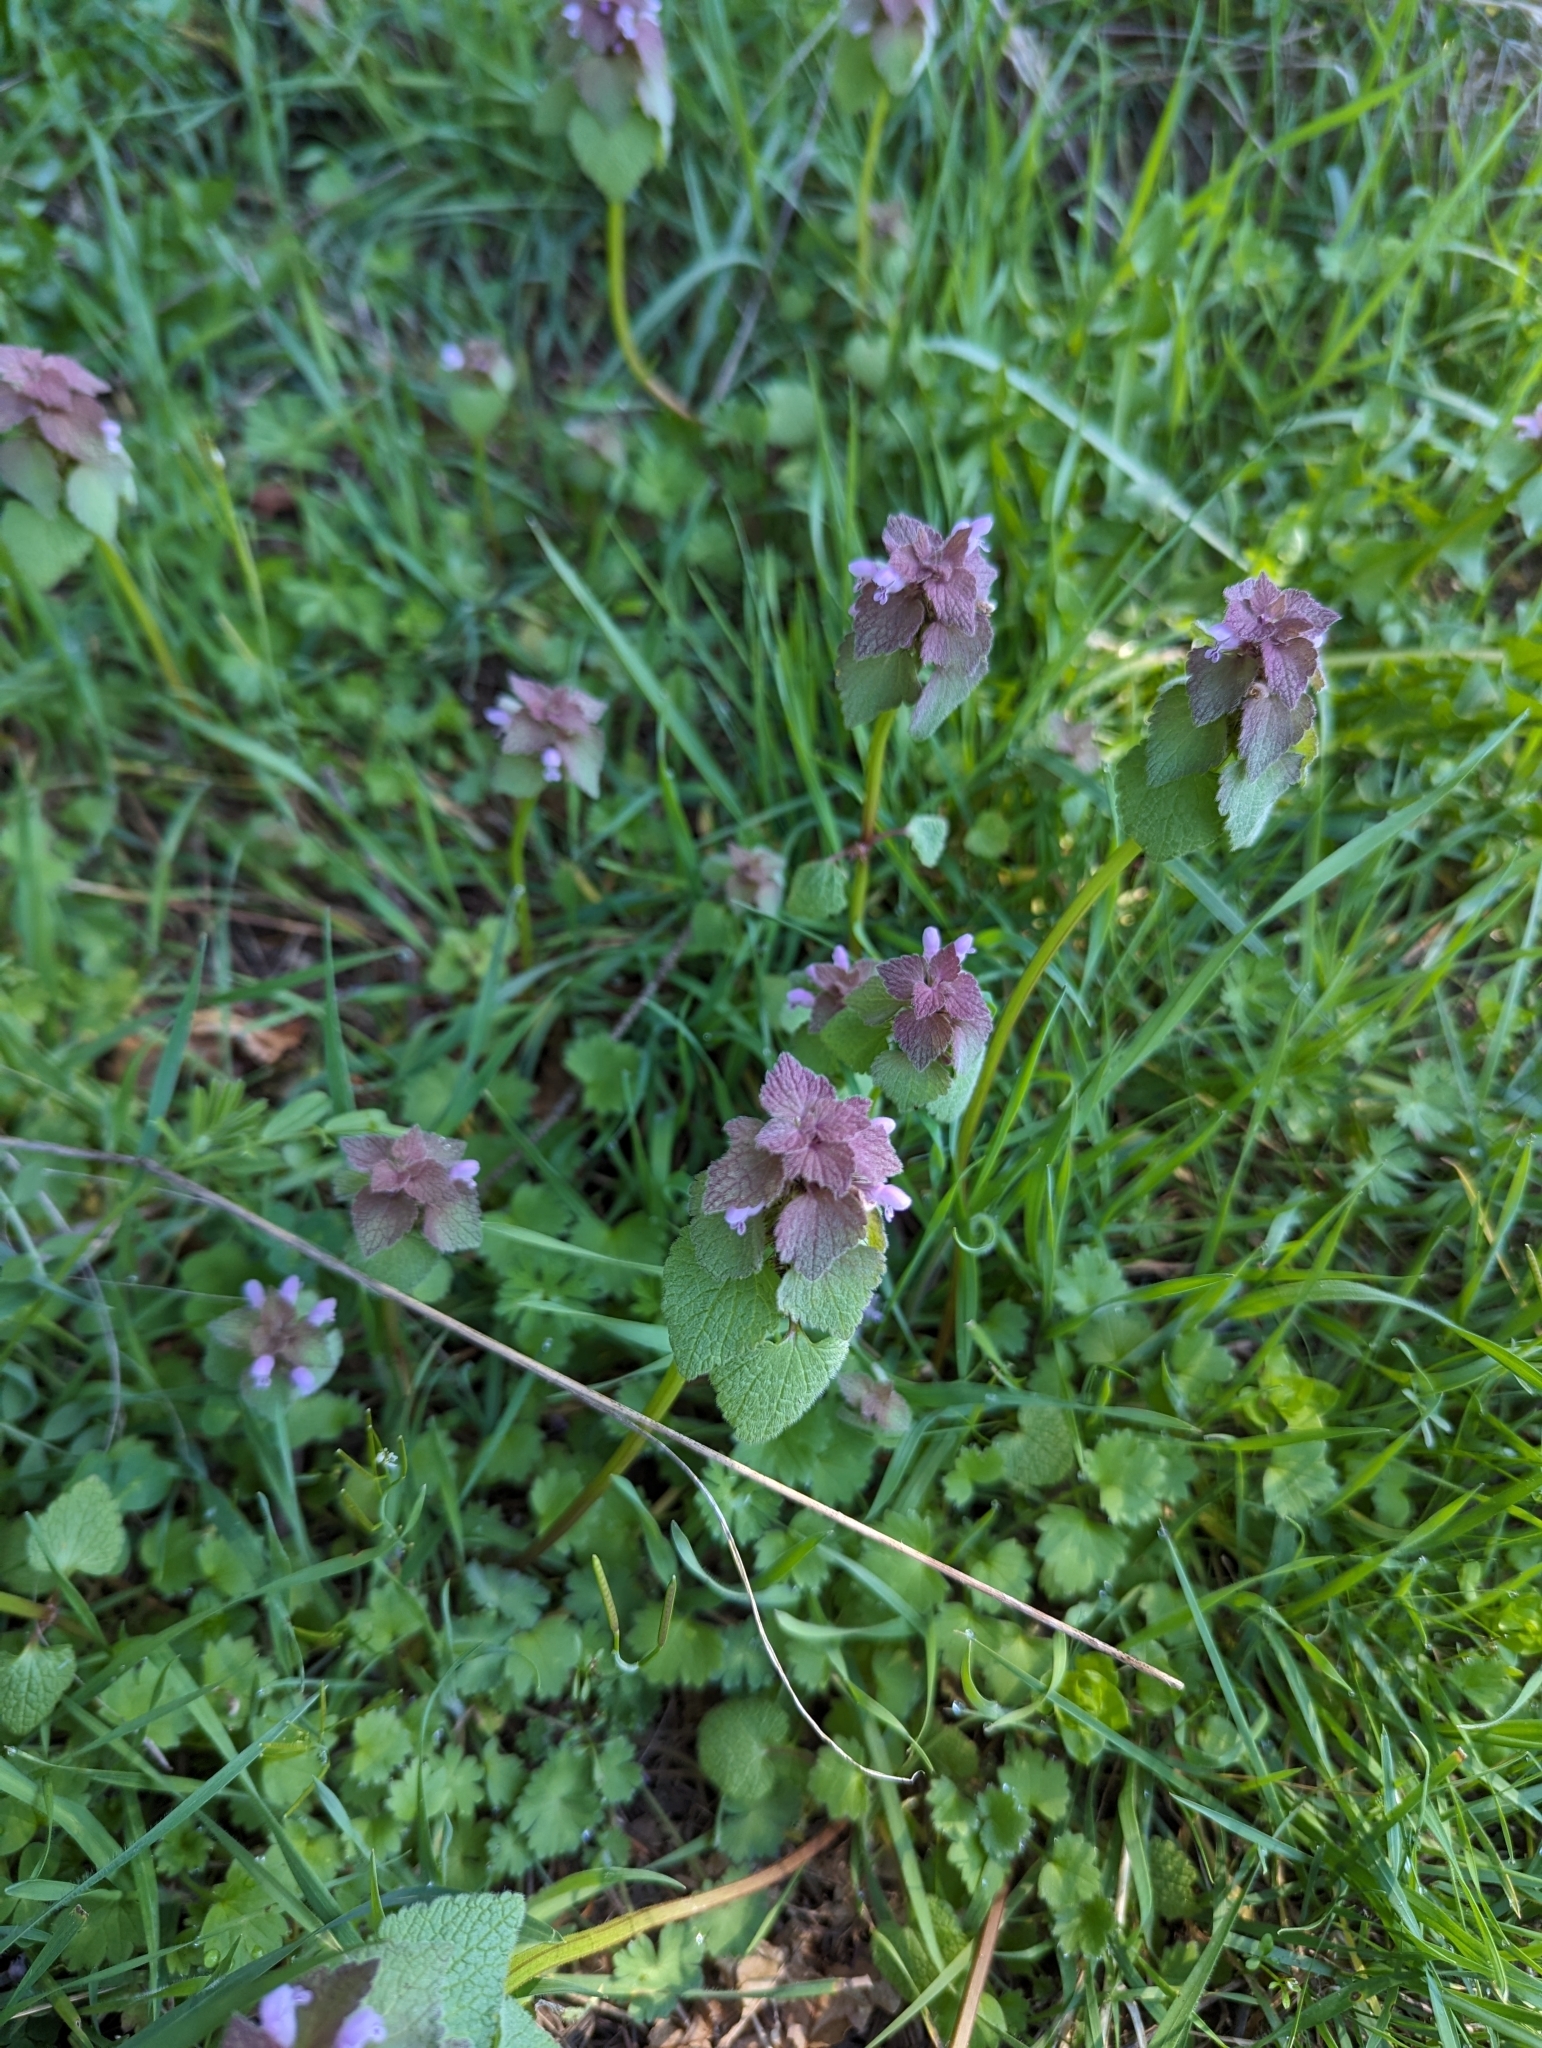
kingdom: Plantae
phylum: Tracheophyta
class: Magnoliopsida
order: Lamiales
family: Lamiaceae
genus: Lamium
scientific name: Lamium purpureum
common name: Red dead-nettle
